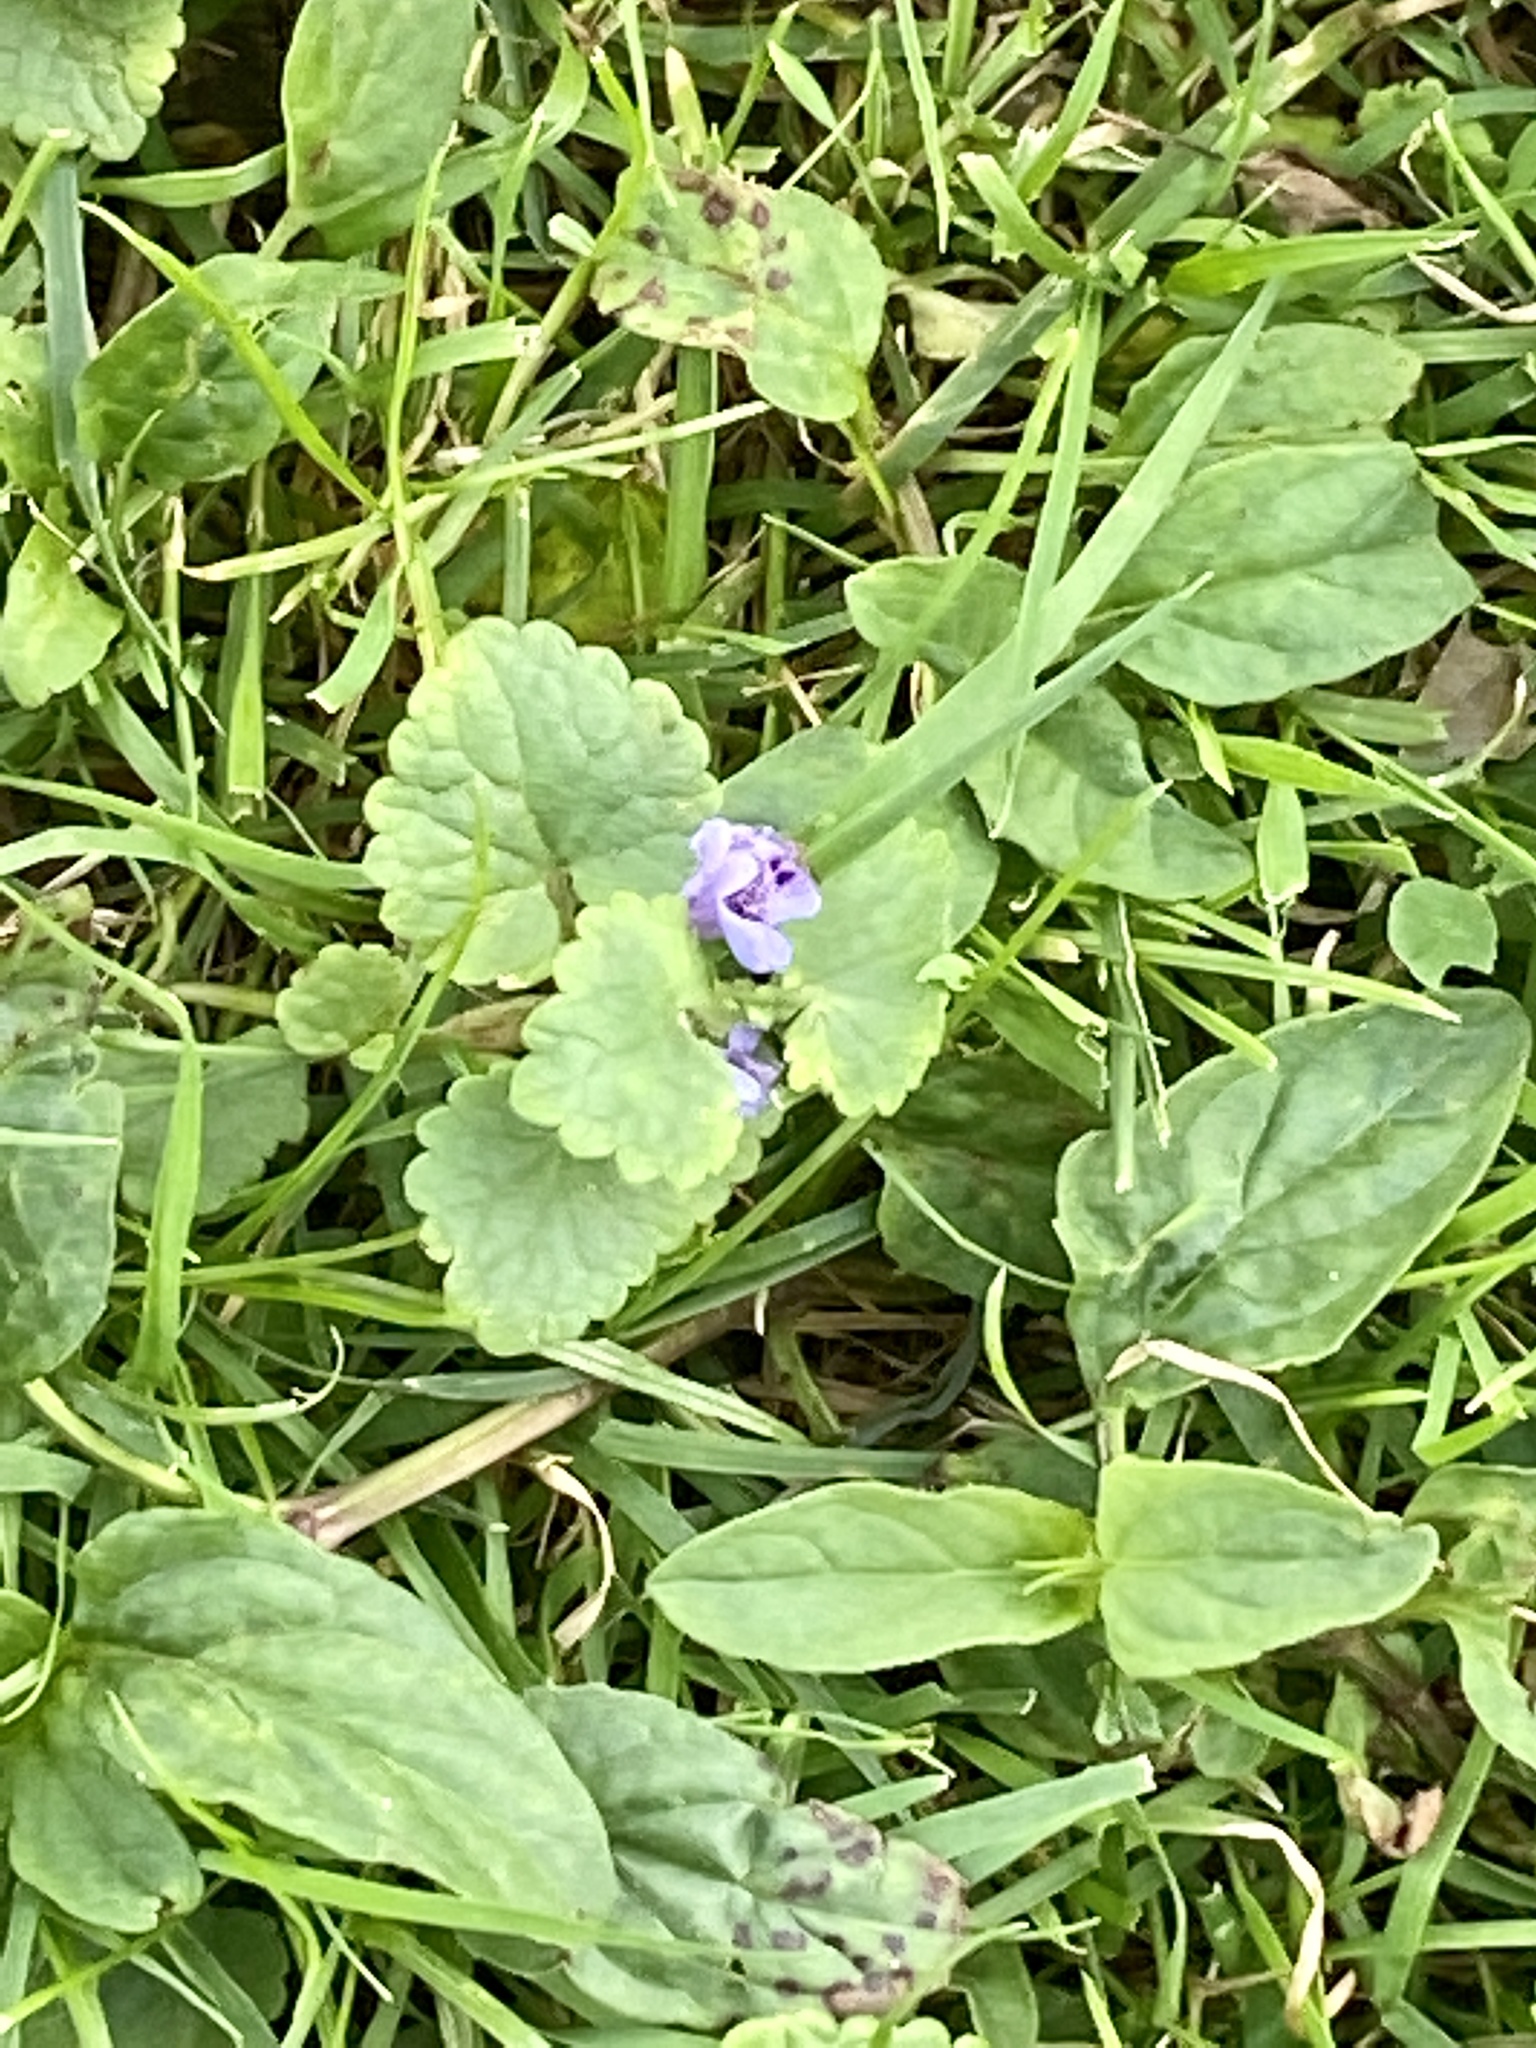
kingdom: Plantae
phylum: Tracheophyta
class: Magnoliopsida
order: Lamiales
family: Lamiaceae
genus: Glechoma
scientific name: Glechoma hederacea
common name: Ground ivy
